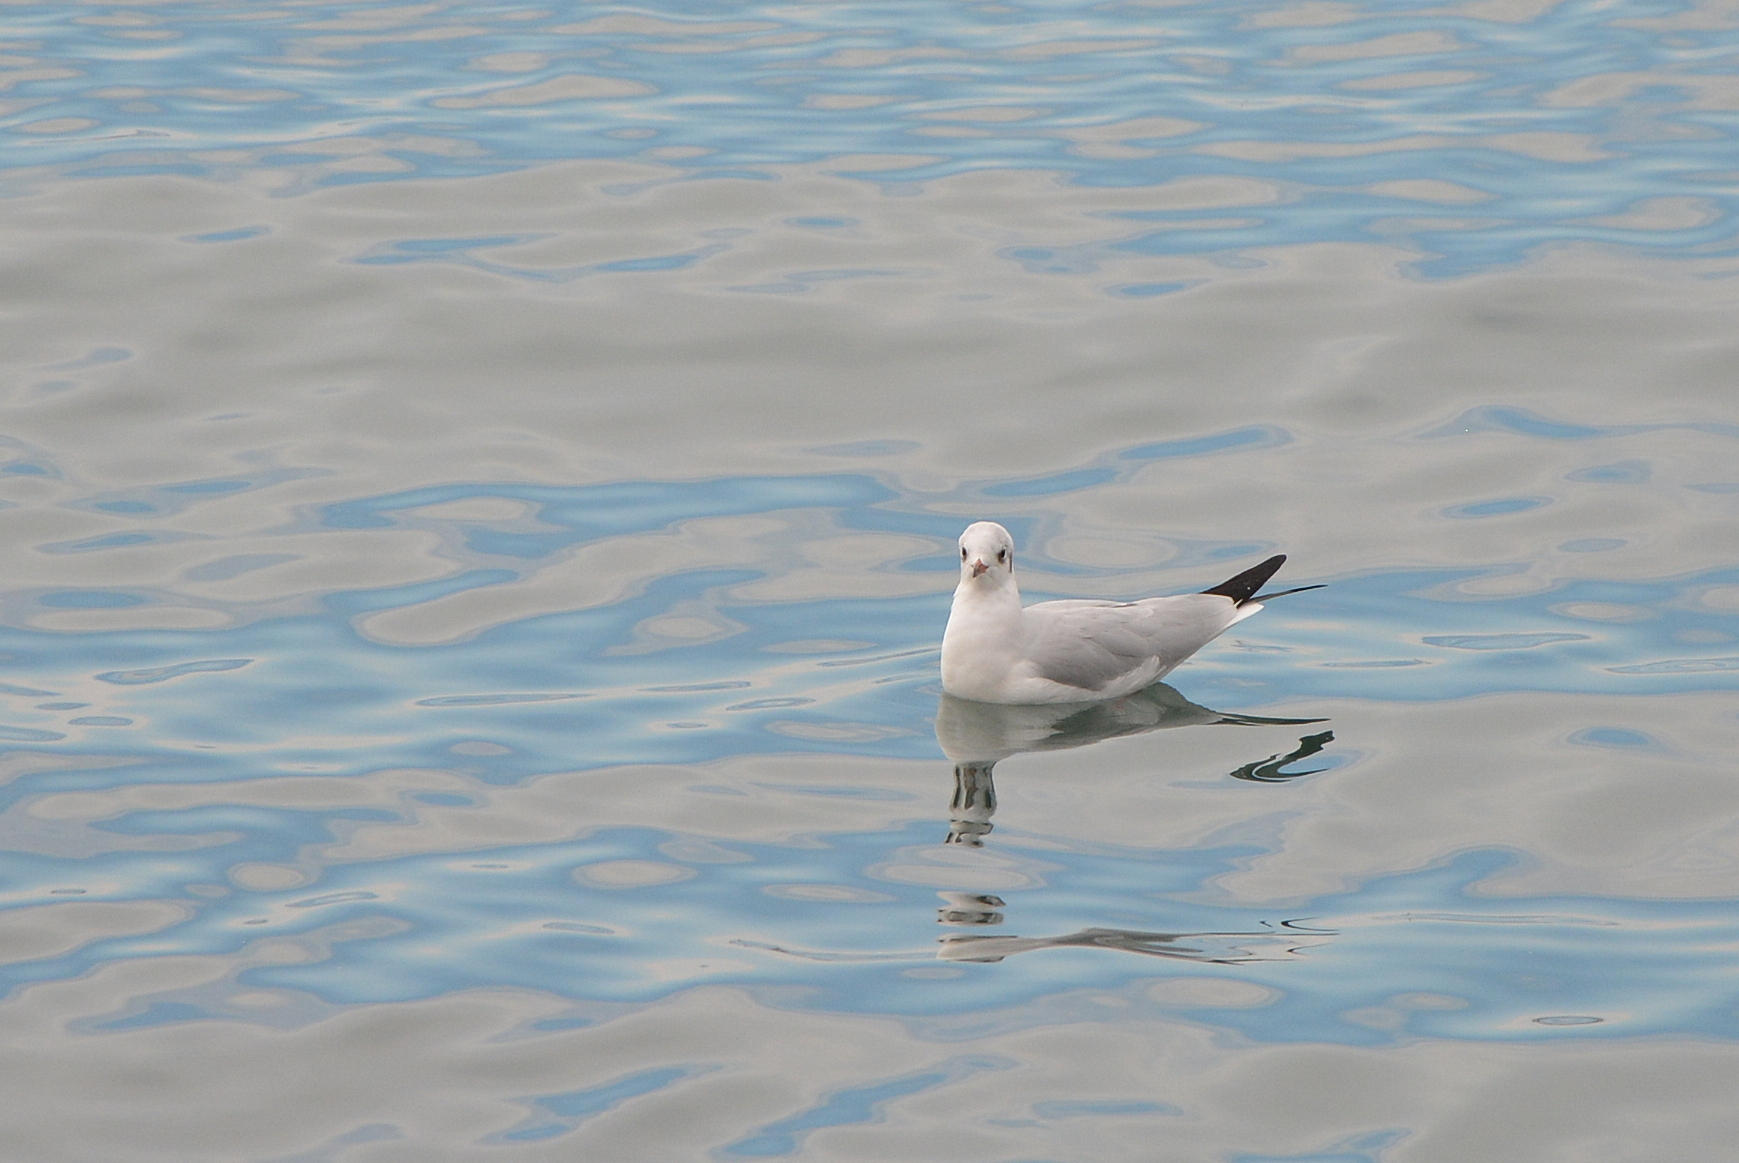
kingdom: Animalia
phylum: Chordata
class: Aves
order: Charadriiformes
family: Laridae
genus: Chroicocephalus
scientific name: Chroicocephalus ridibundus
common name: Black-headed gull
